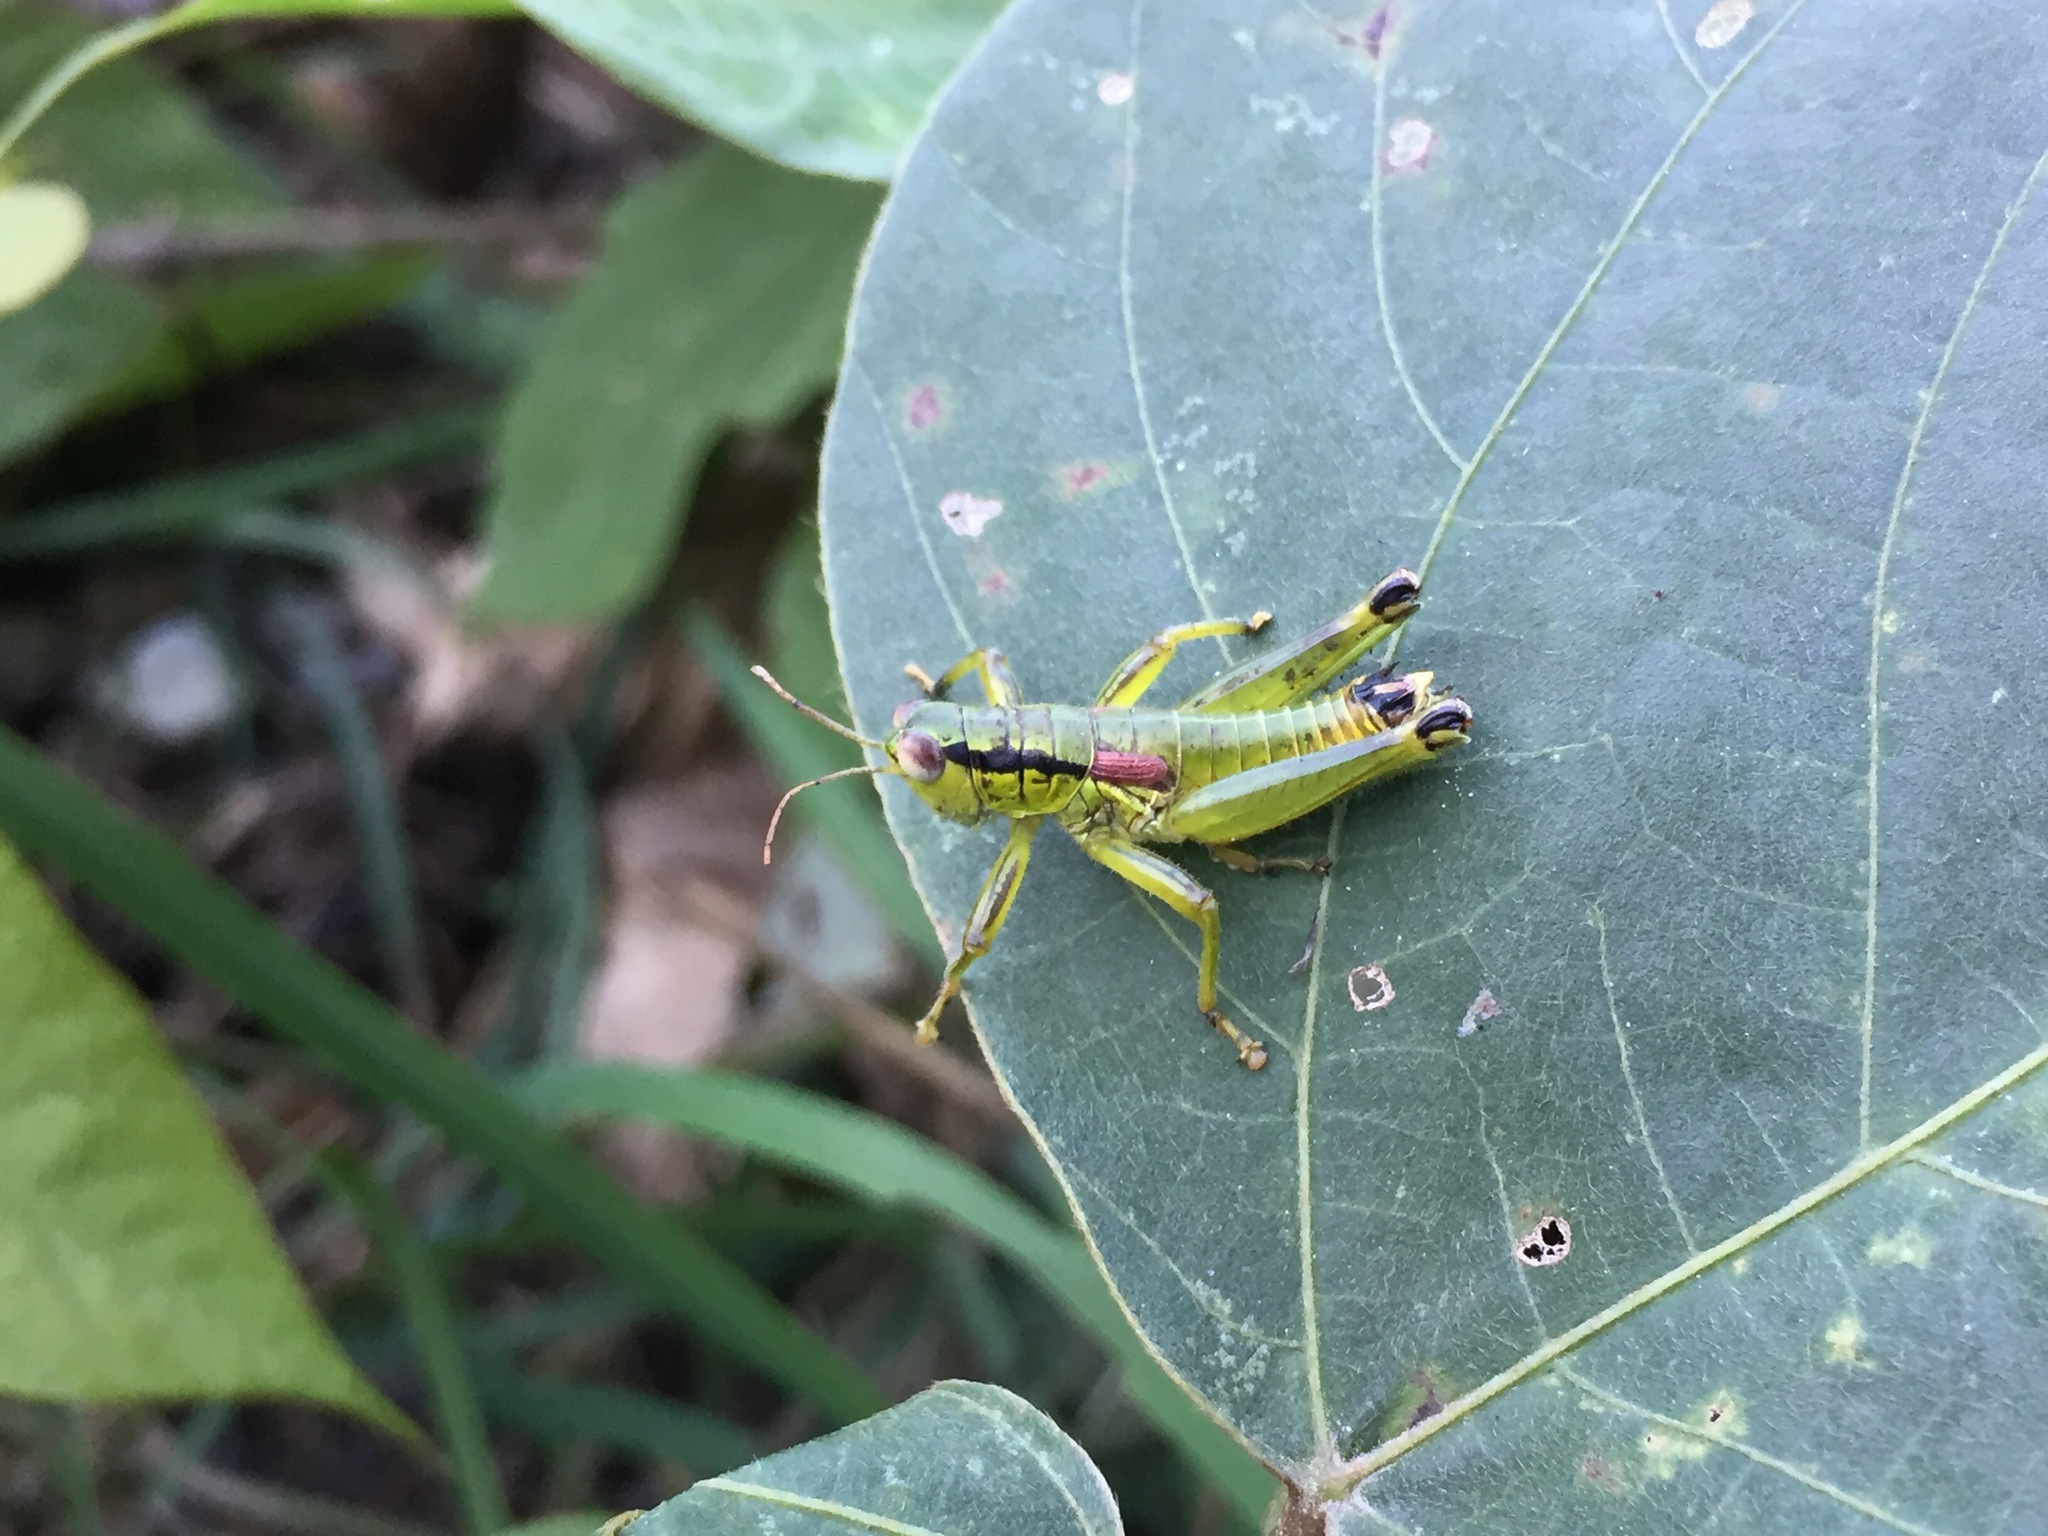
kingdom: Animalia
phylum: Arthropoda
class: Insecta
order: Orthoptera
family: Acrididae
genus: Anapodisma
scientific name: Anapodisma miramae
